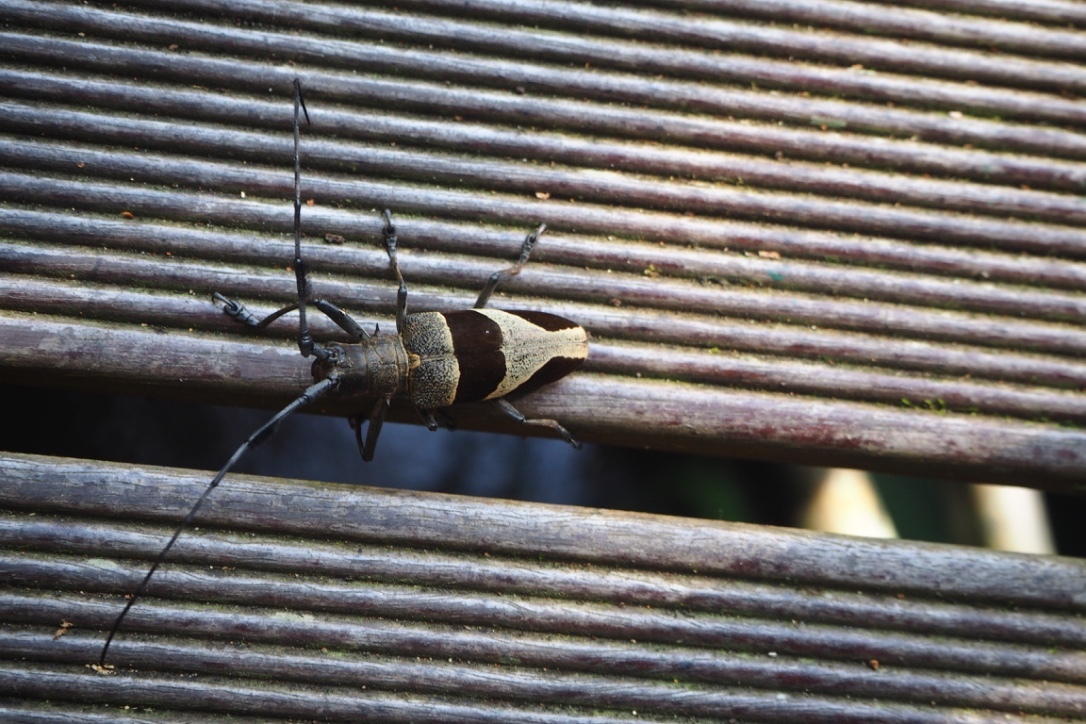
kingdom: Animalia
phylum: Arthropoda
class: Insecta
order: Coleoptera
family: Cerambycidae
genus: Leprodera
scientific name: Leprodera verrucosa
